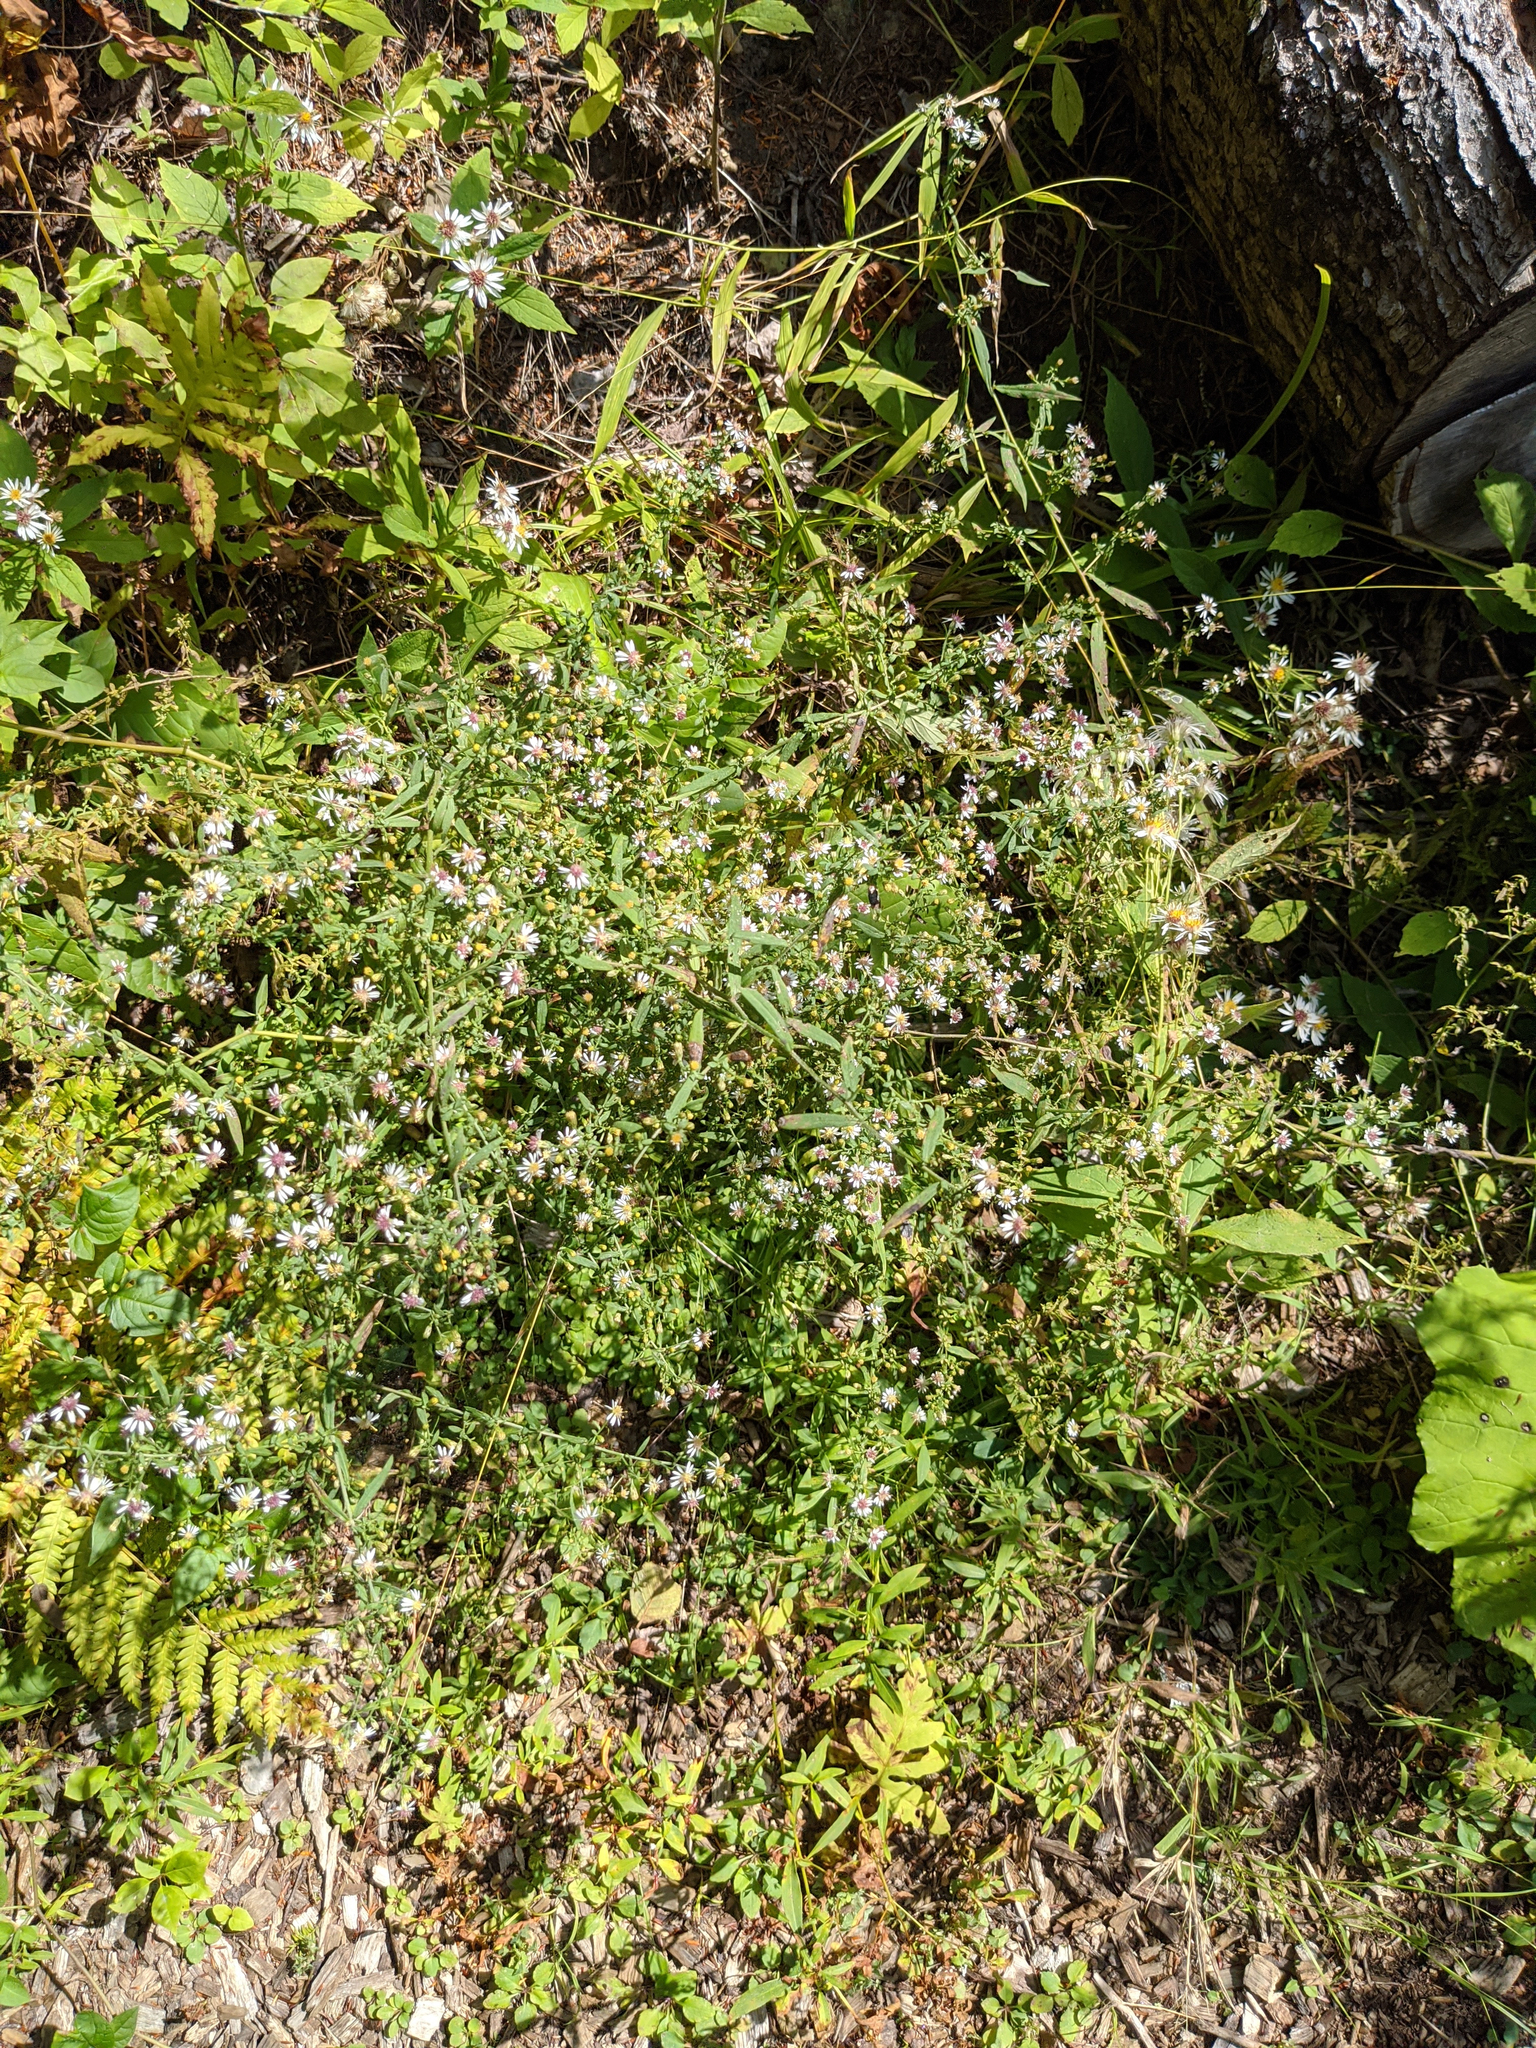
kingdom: Plantae
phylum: Tracheophyta
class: Magnoliopsida
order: Asterales
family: Asteraceae
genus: Symphyotrichum
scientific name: Symphyotrichum lateriflorum
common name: Calico aster
